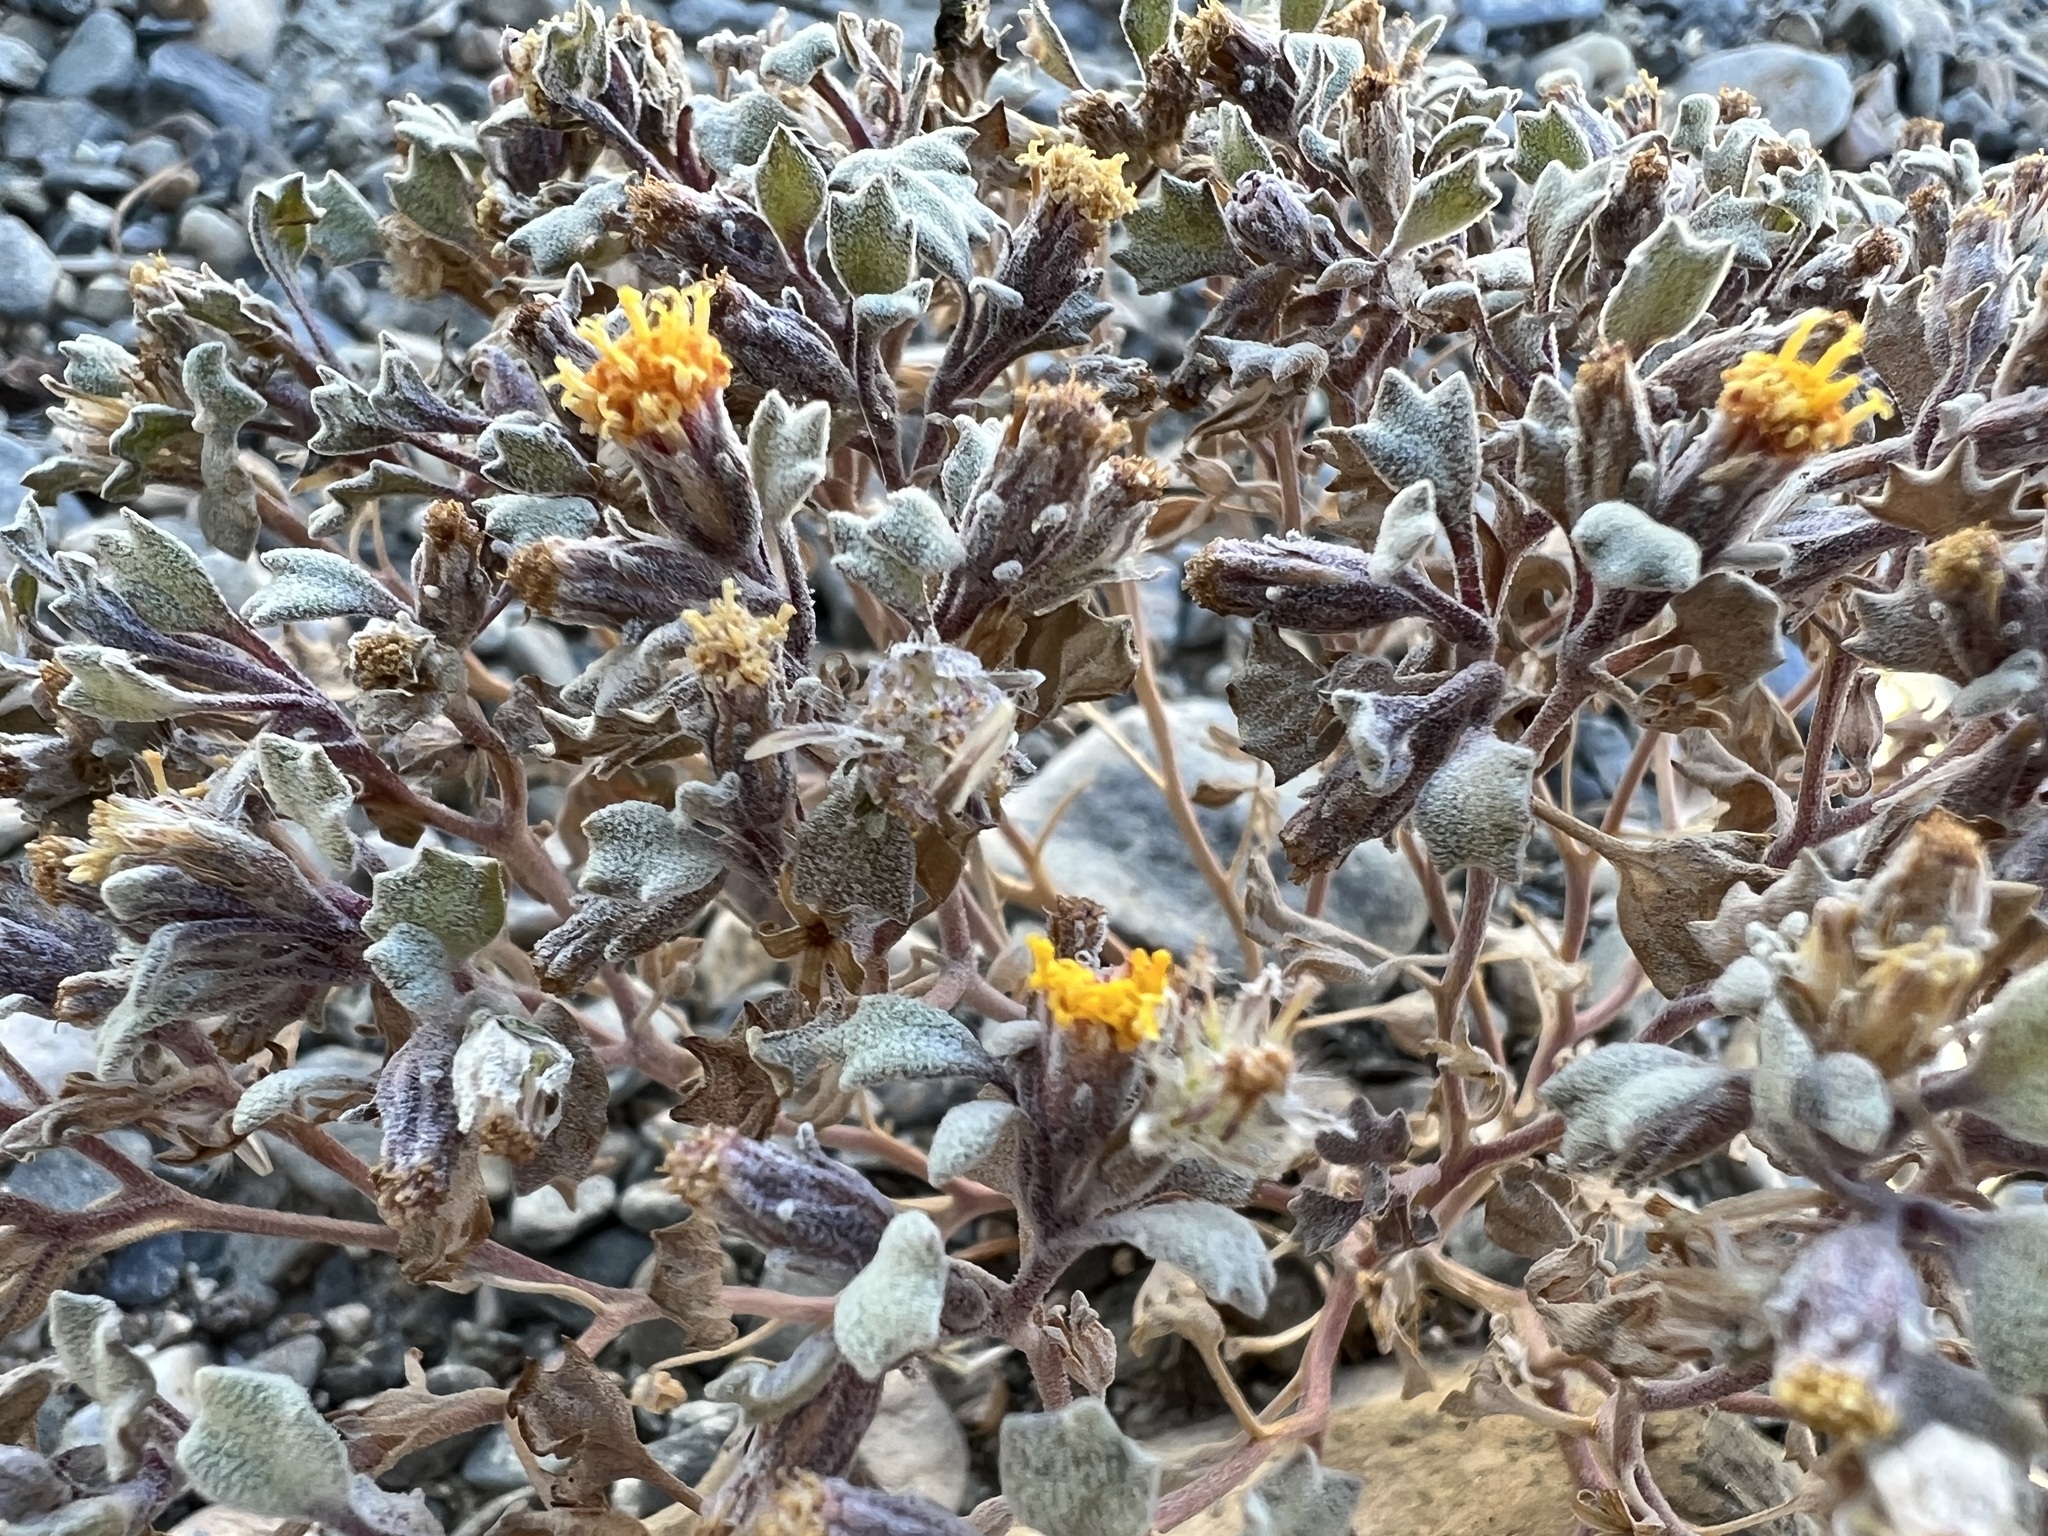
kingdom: Plantae
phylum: Tracheophyta
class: Magnoliopsida
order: Asterales
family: Asteraceae
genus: Psathyrotes
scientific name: Psathyrotes annua
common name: Mealy rosettes
